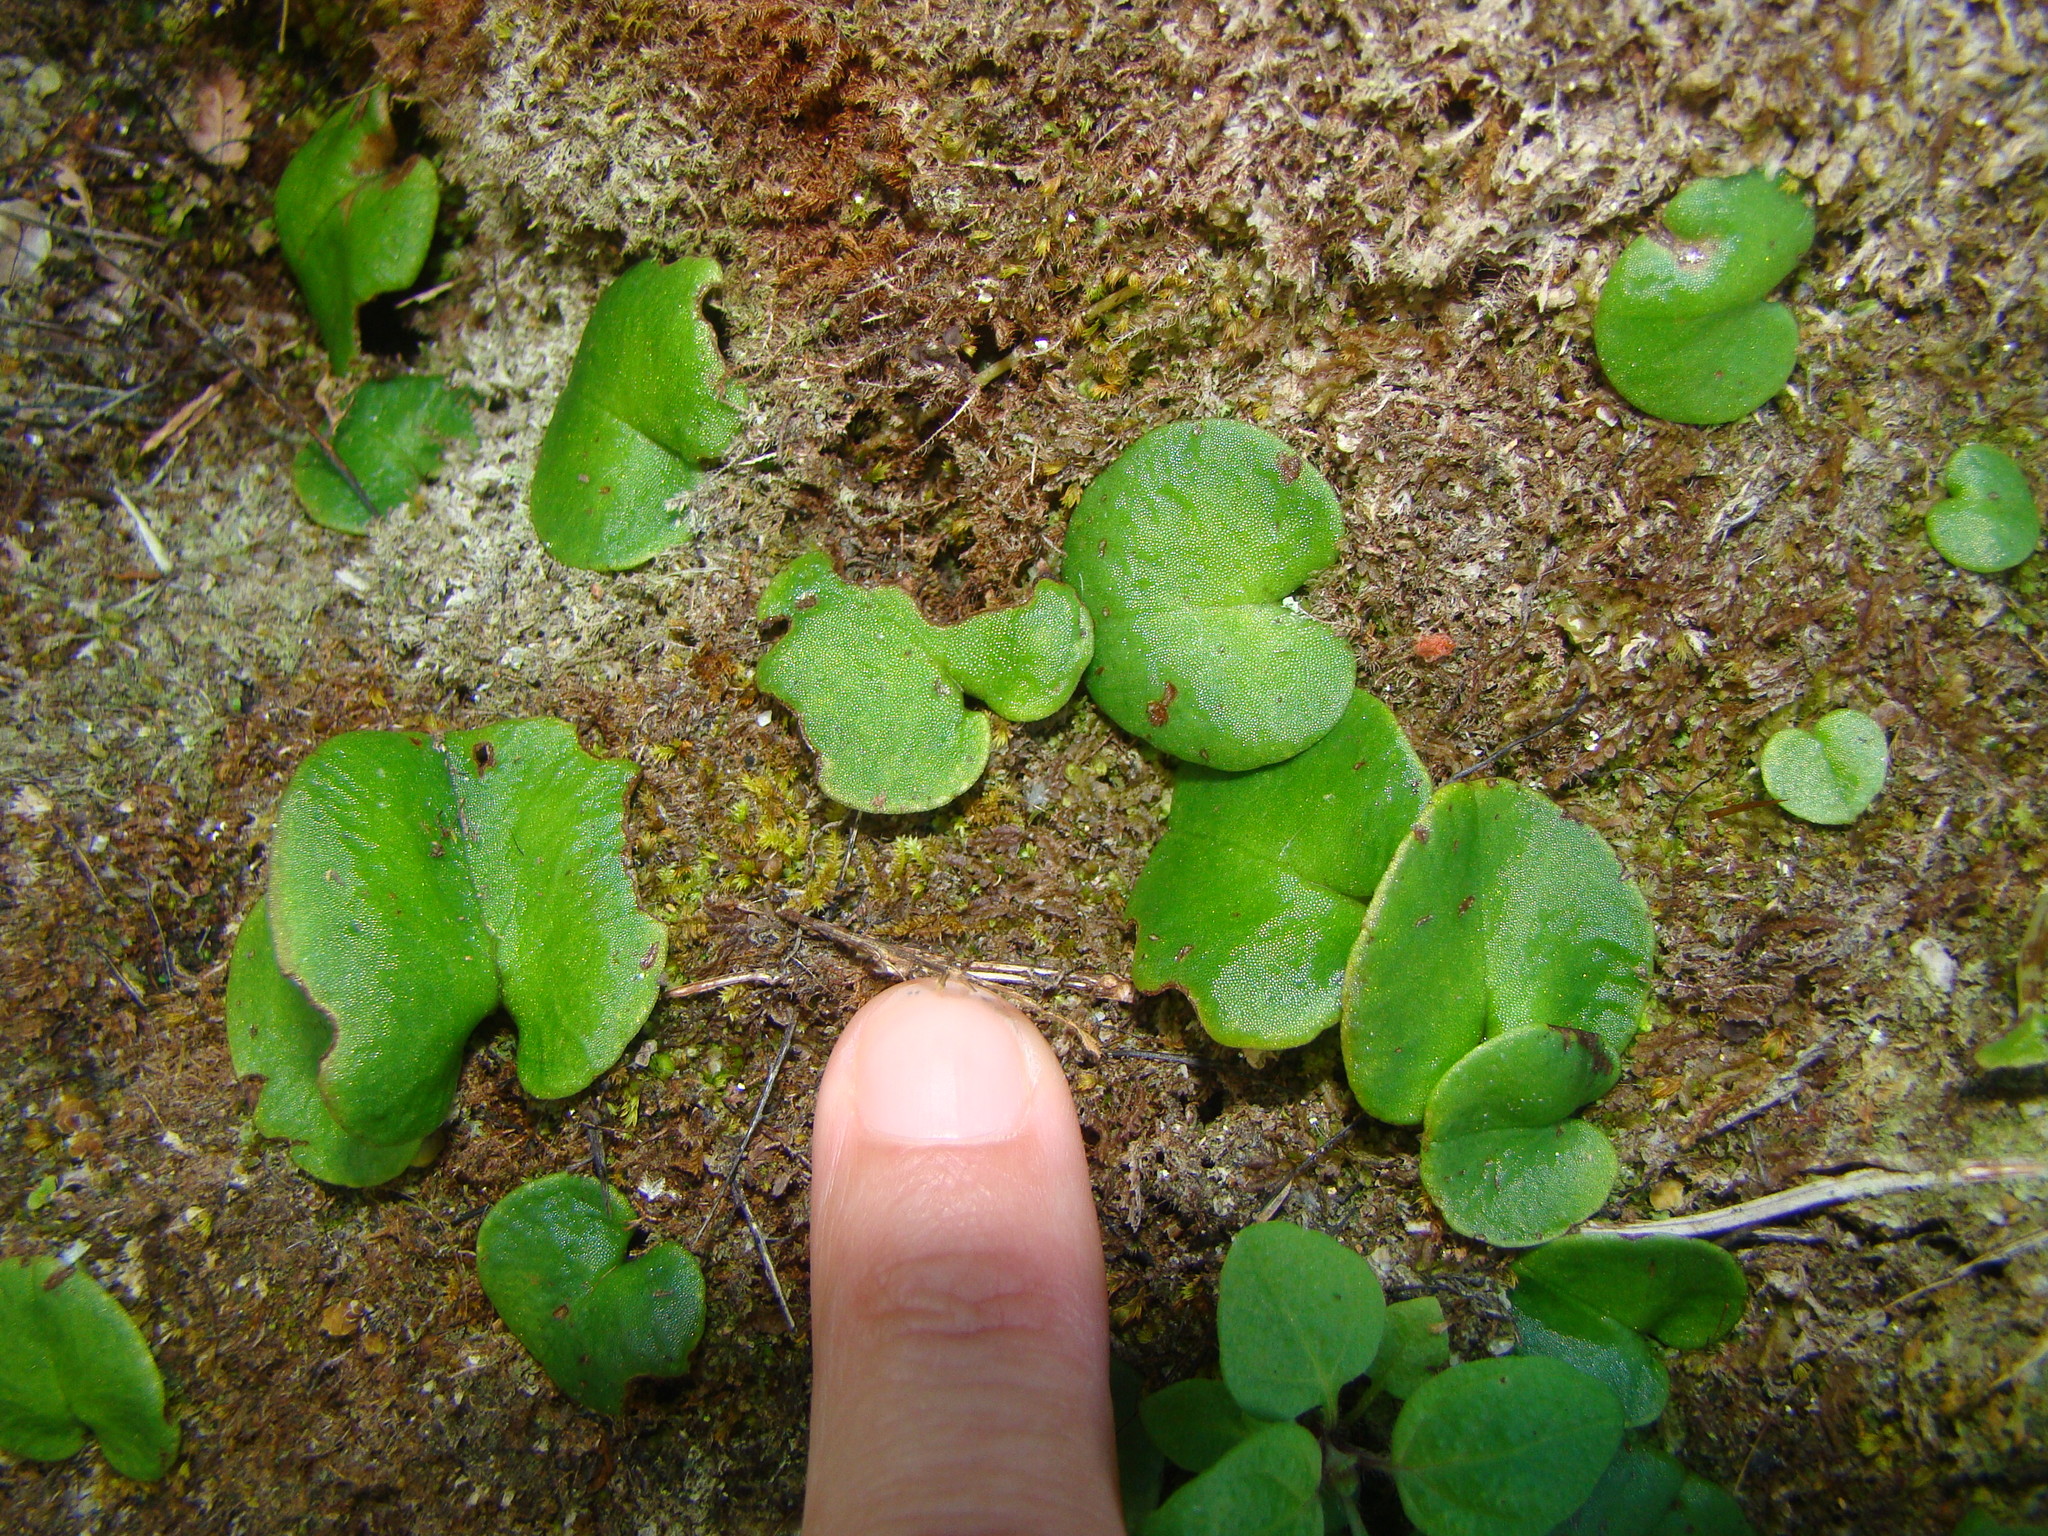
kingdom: Plantae
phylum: Tracheophyta
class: Liliopsida
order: Asparagales
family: Orchidaceae
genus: Corybas
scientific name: Corybas
